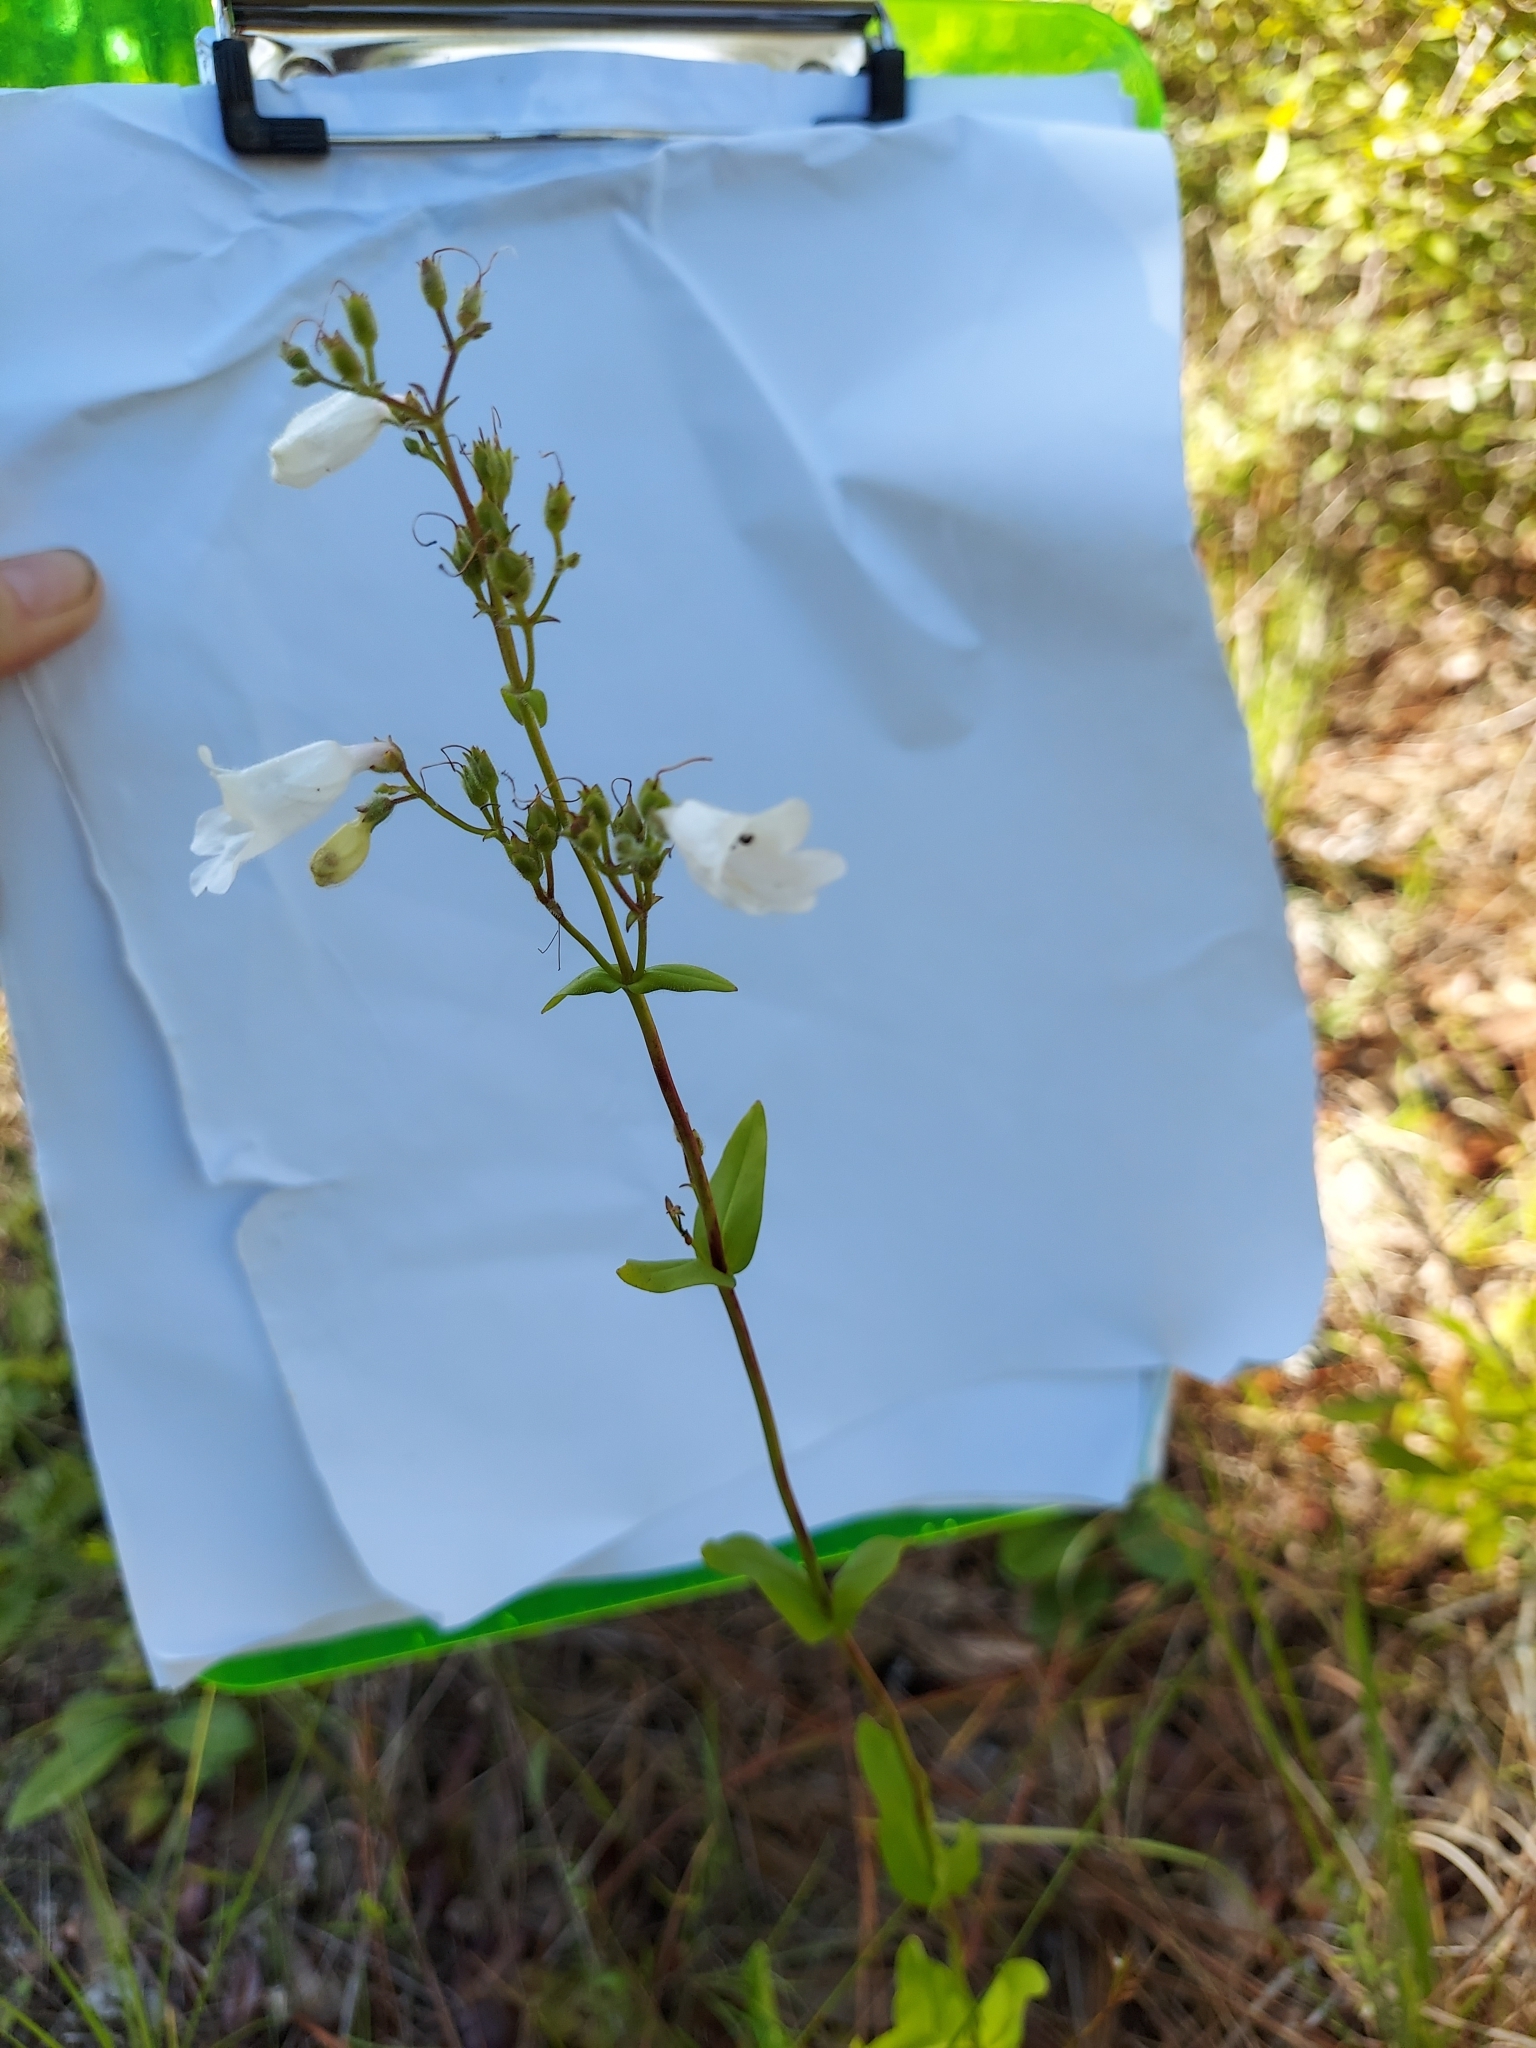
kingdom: Plantae
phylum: Tracheophyta
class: Magnoliopsida
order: Lamiales
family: Plantaginaceae
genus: Penstemon
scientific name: Penstemon multiflorus
